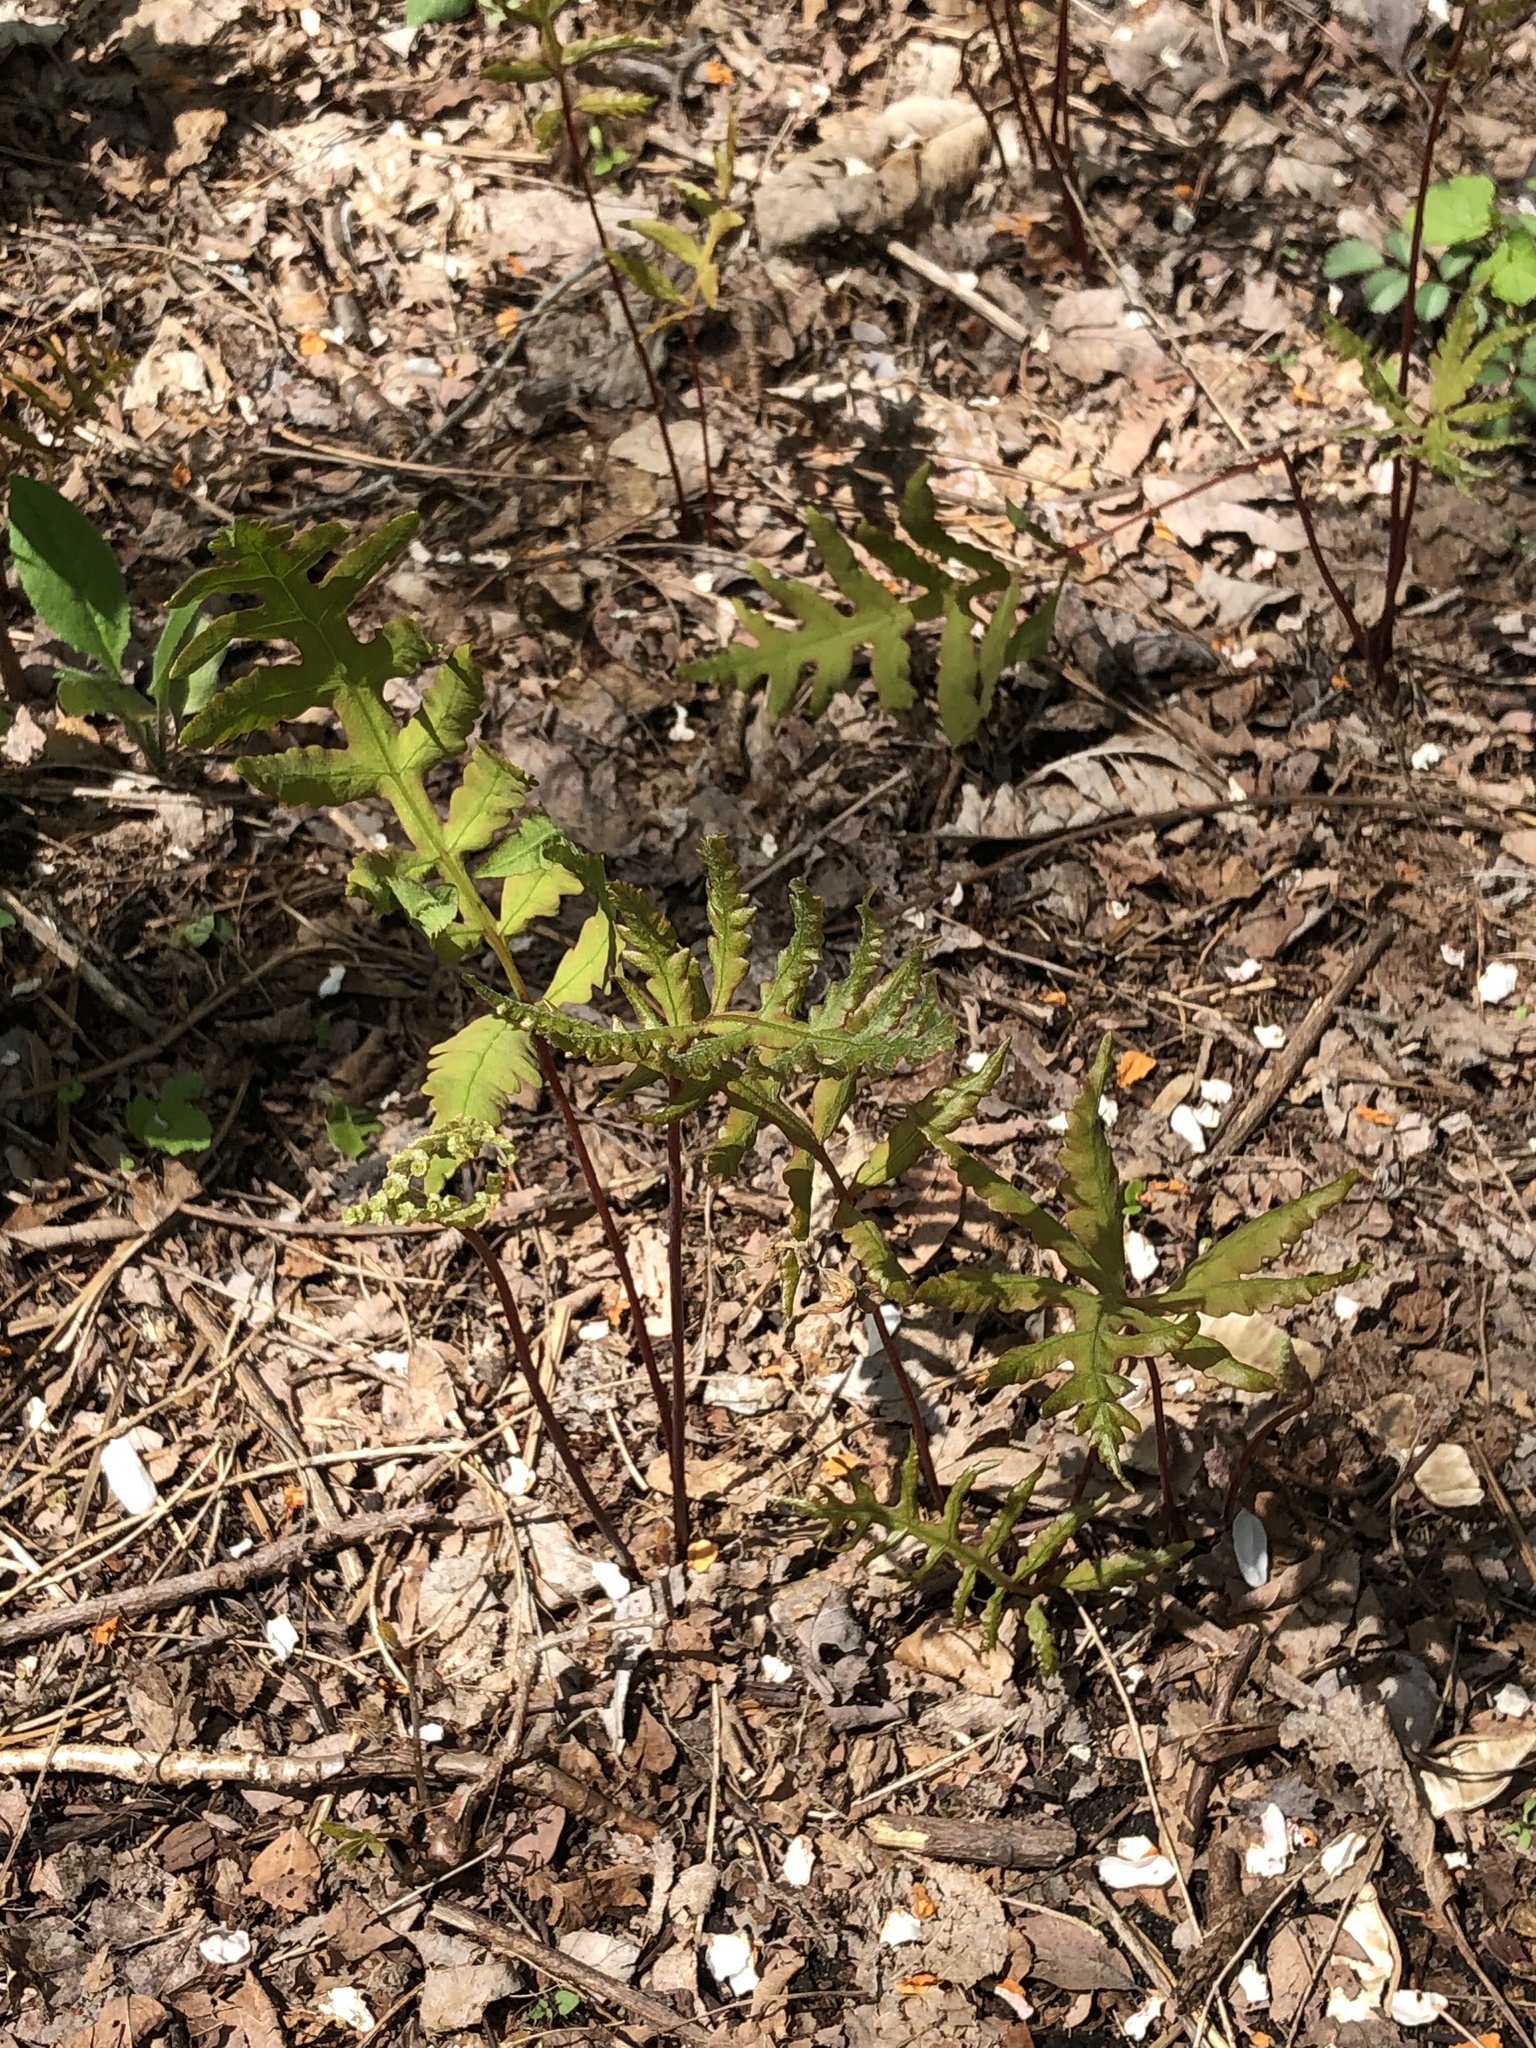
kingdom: Plantae
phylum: Tracheophyta
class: Polypodiopsida
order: Polypodiales
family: Onocleaceae
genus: Onoclea
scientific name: Onoclea sensibilis
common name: Sensitive fern
